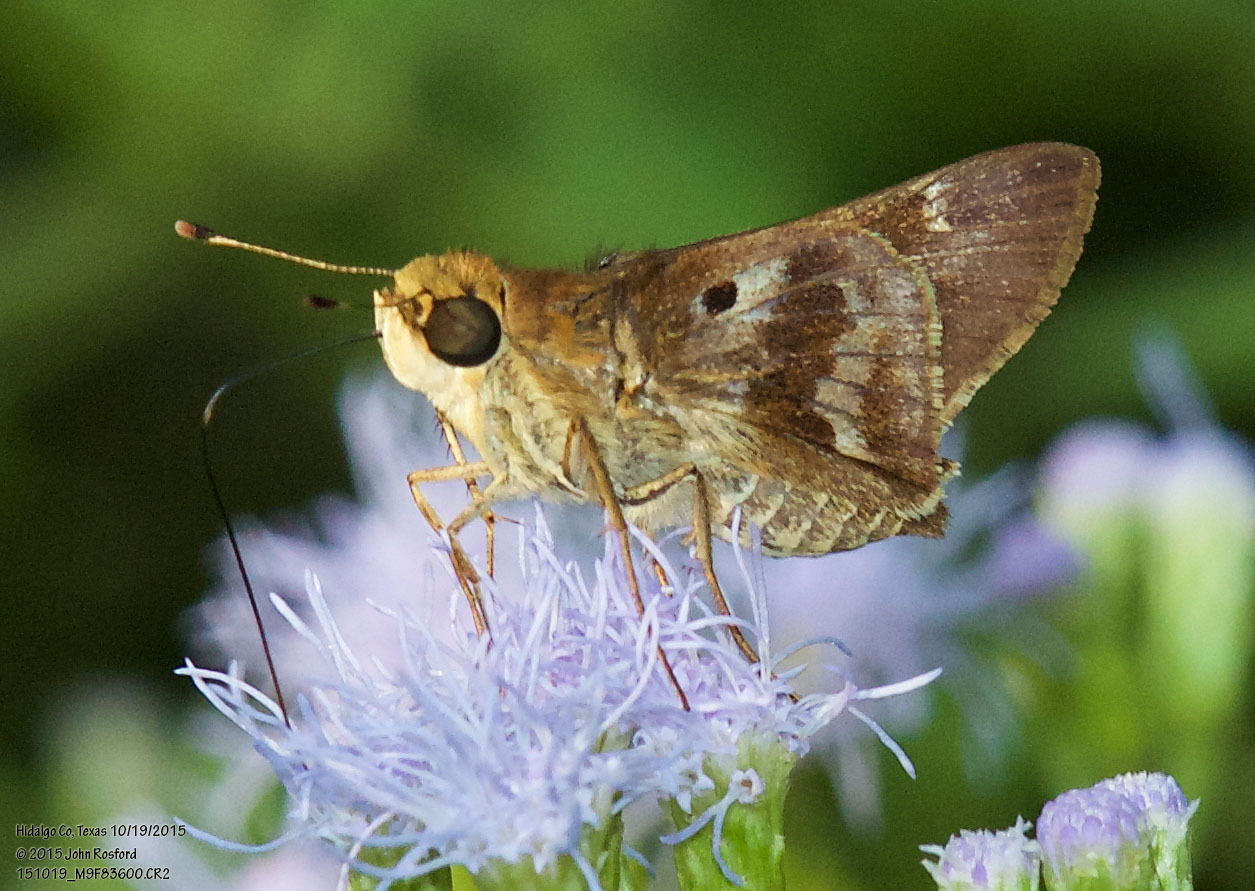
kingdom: Animalia
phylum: Arthropoda
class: Insecta
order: Lepidoptera
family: Hesperiidae
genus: Nyctelius
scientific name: Nyctelius nyctelius
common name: Violet-banded skipper
